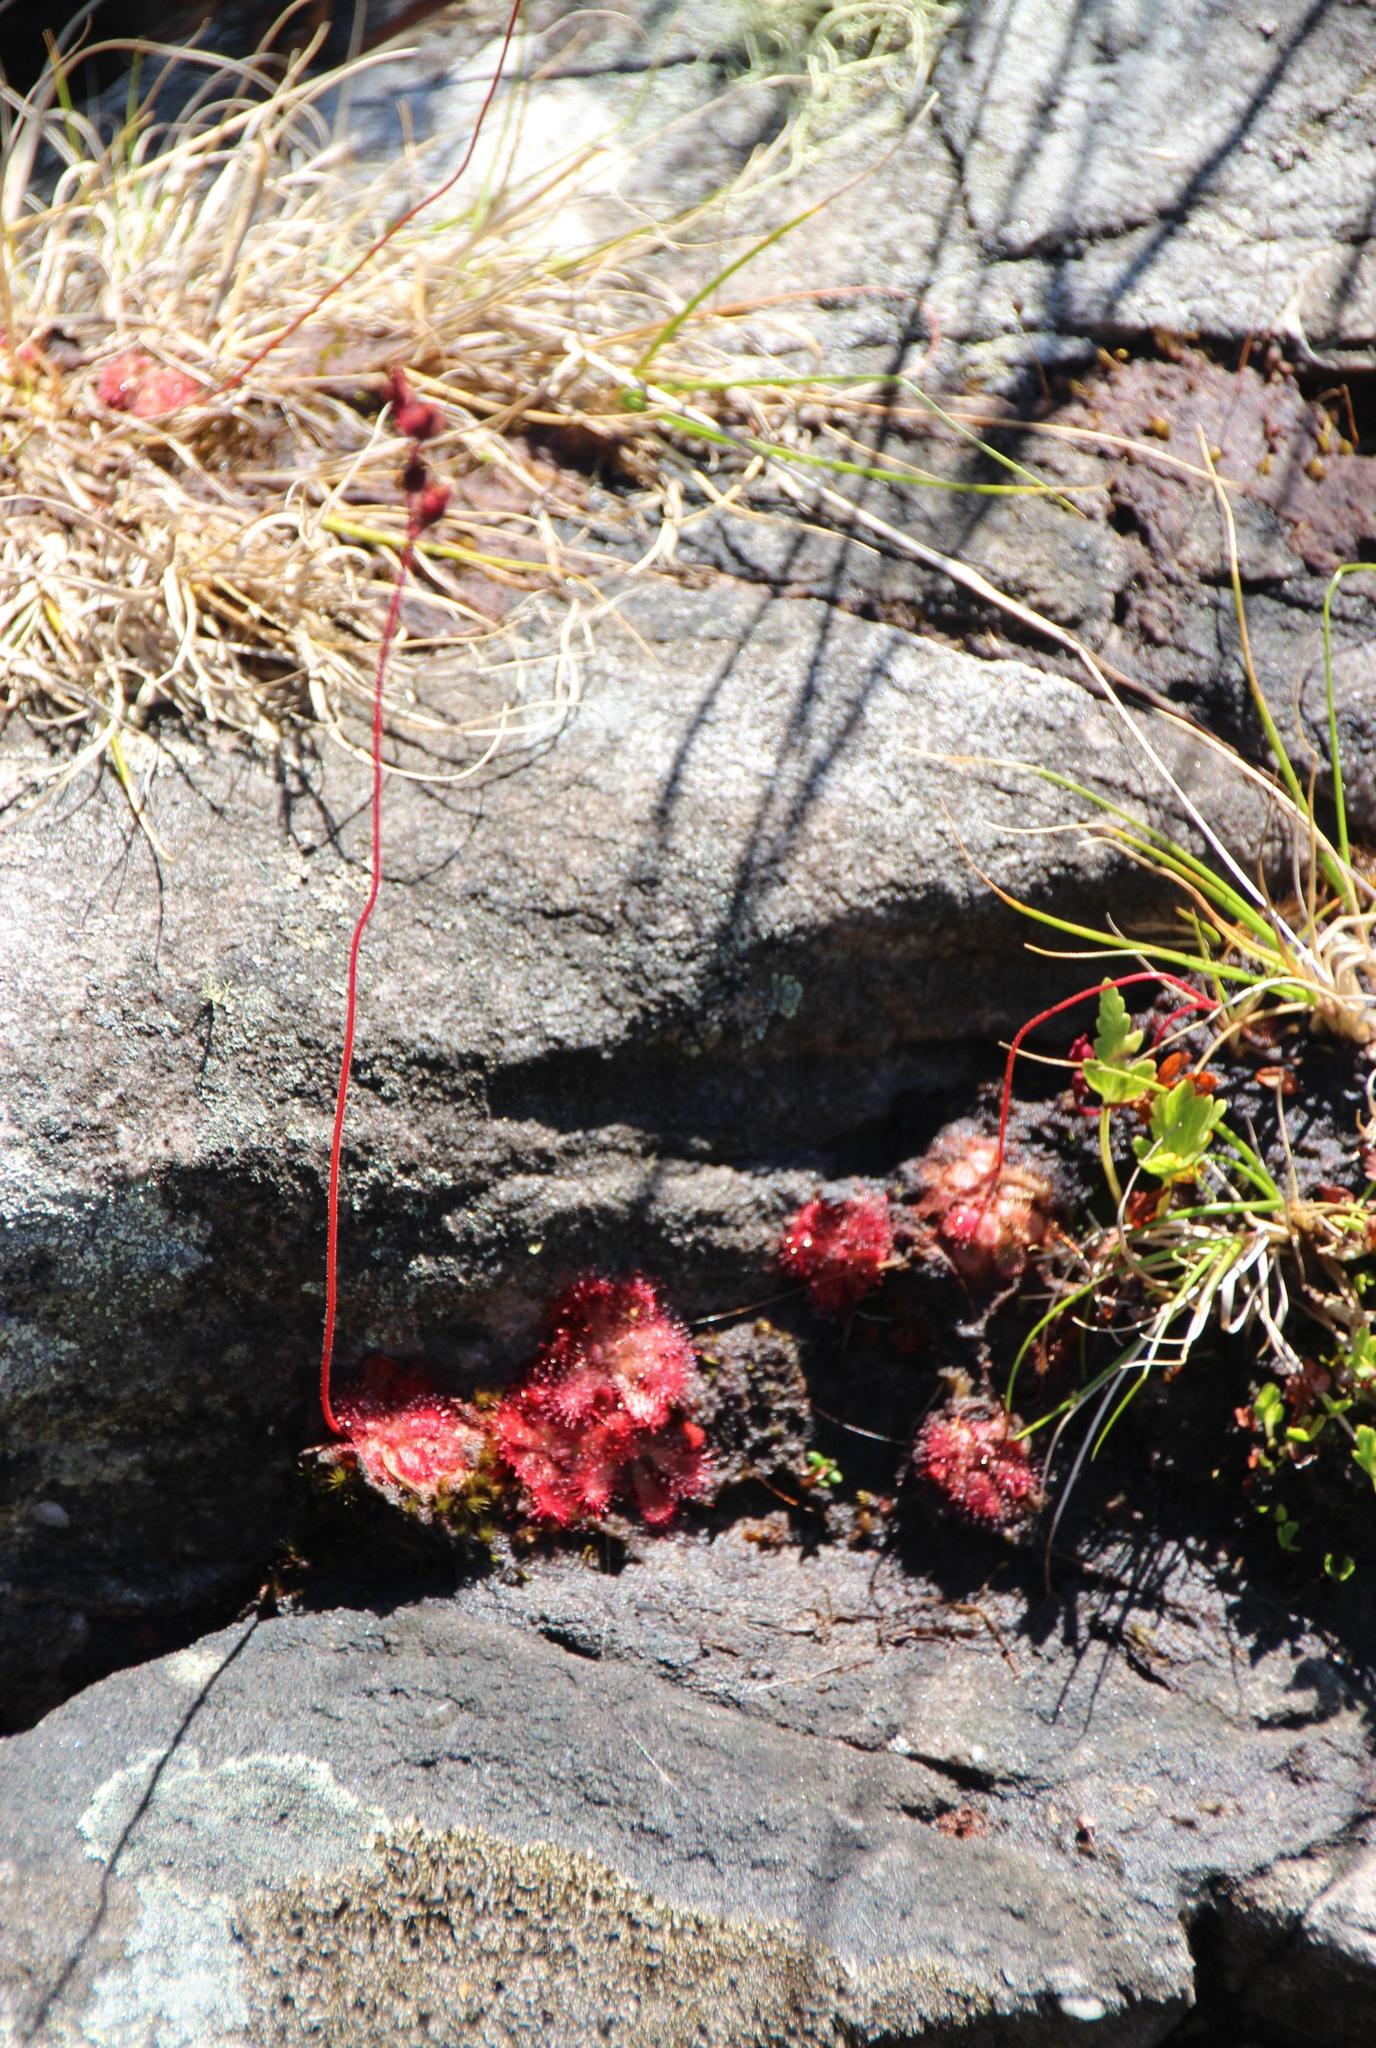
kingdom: Plantae
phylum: Tracheophyta
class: Magnoliopsida
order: Caryophyllales
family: Droseraceae
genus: Drosera
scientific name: Drosera aliciae
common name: Alice sundew
